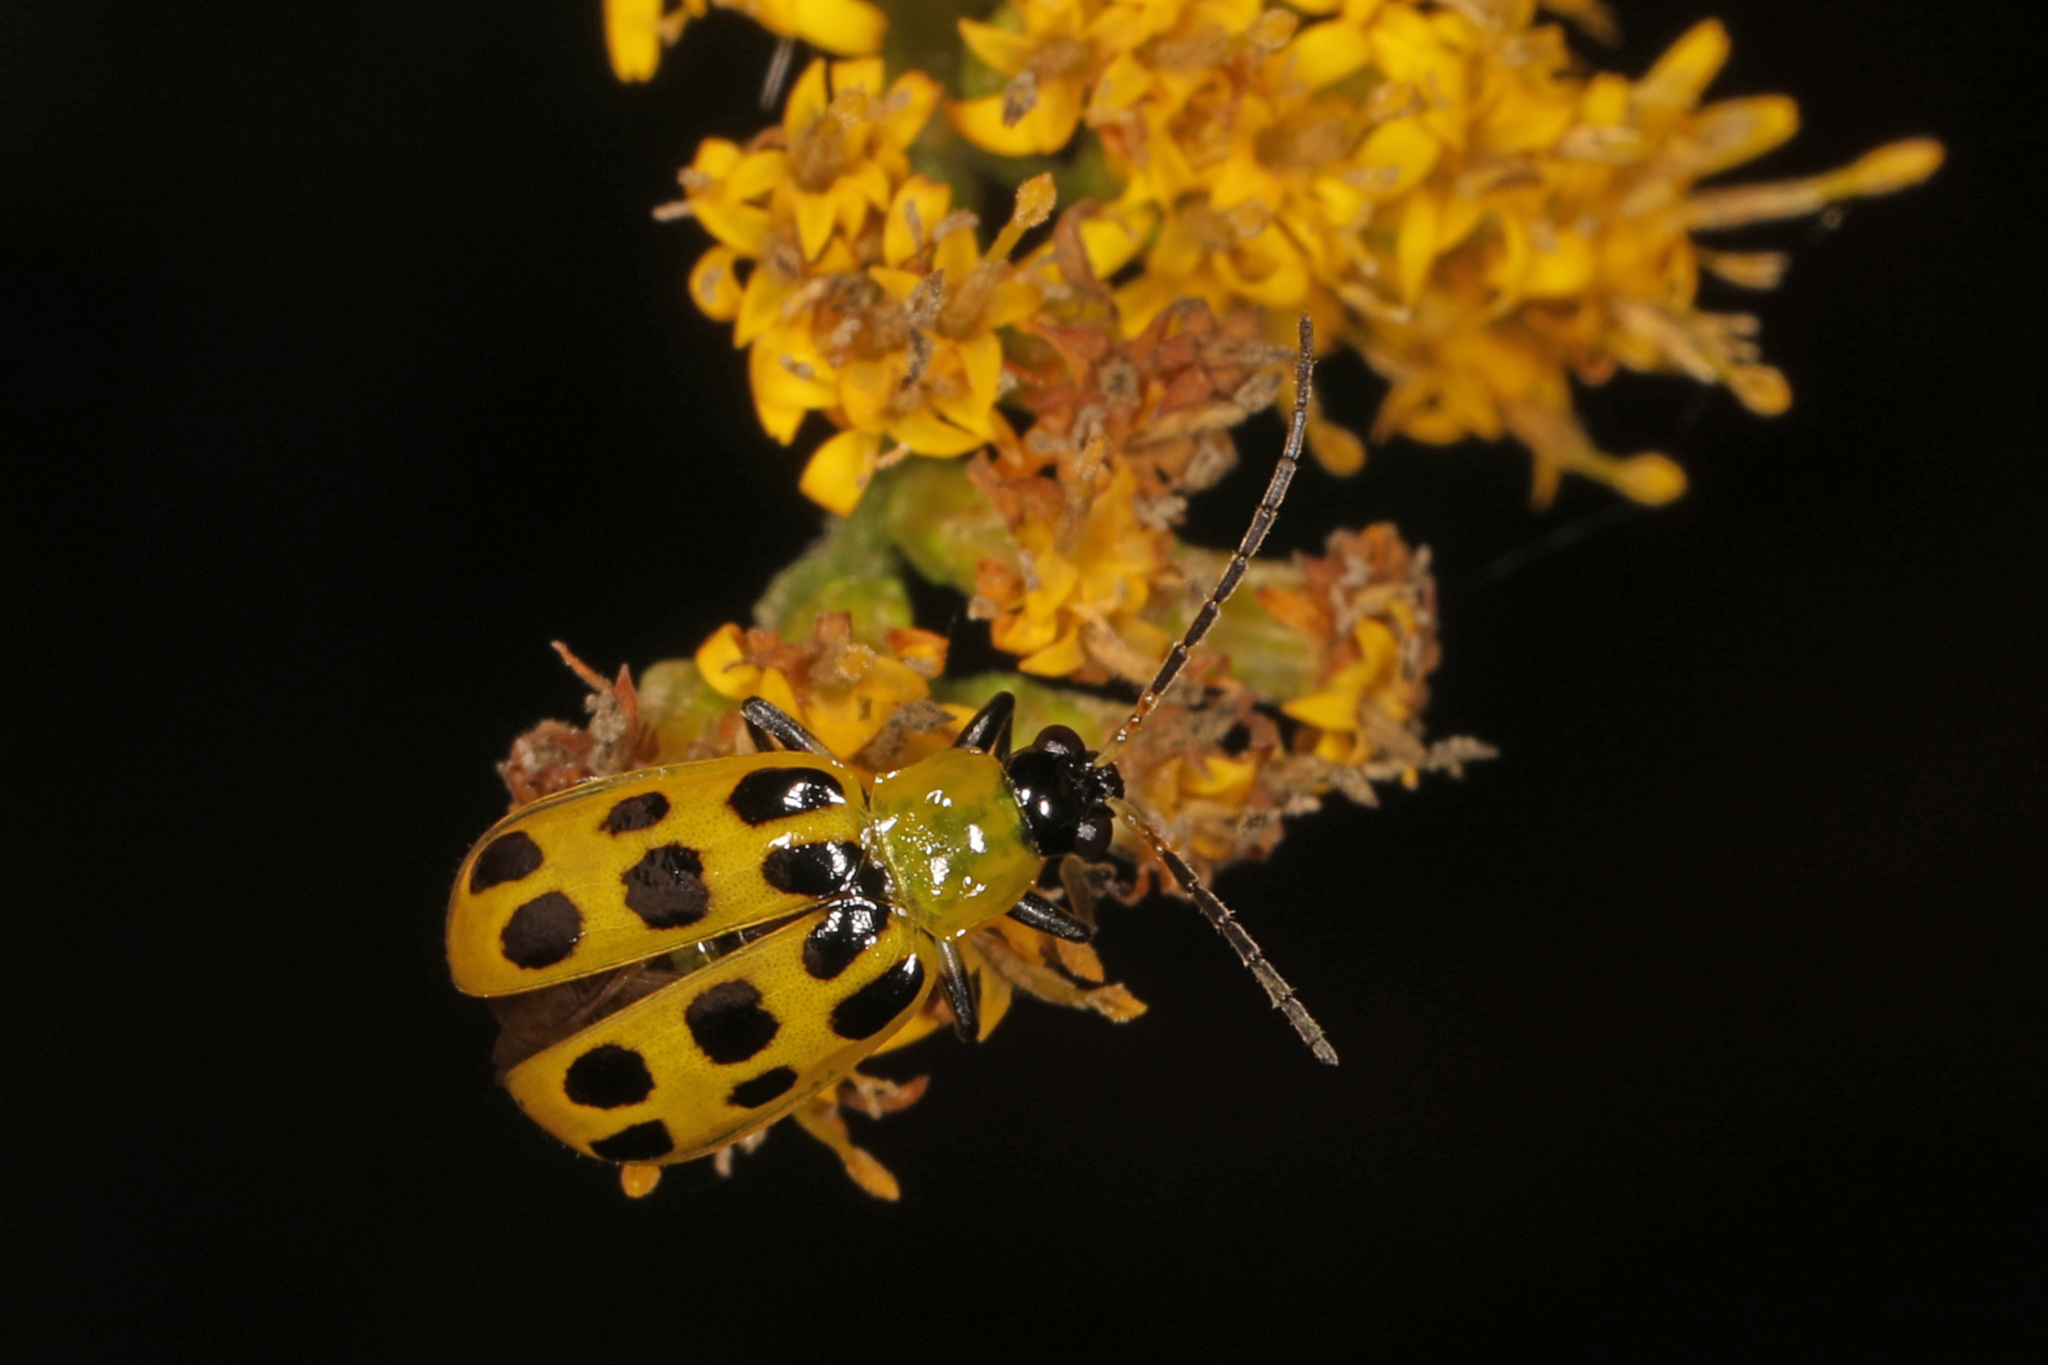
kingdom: Animalia
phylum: Arthropoda
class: Insecta
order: Coleoptera
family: Chrysomelidae
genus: Diabrotica
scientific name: Diabrotica undecimpunctata
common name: Spotted cucumber beetle
